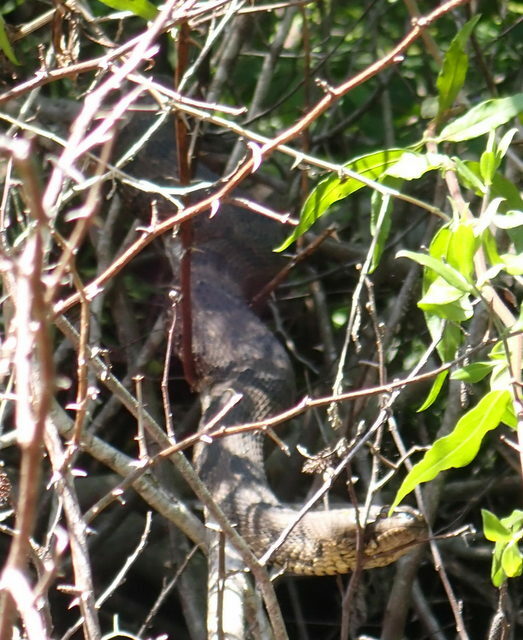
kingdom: Animalia
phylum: Chordata
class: Squamata
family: Colubridae
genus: Nerodia
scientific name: Nerodia taxispilota
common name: Brown water snake
